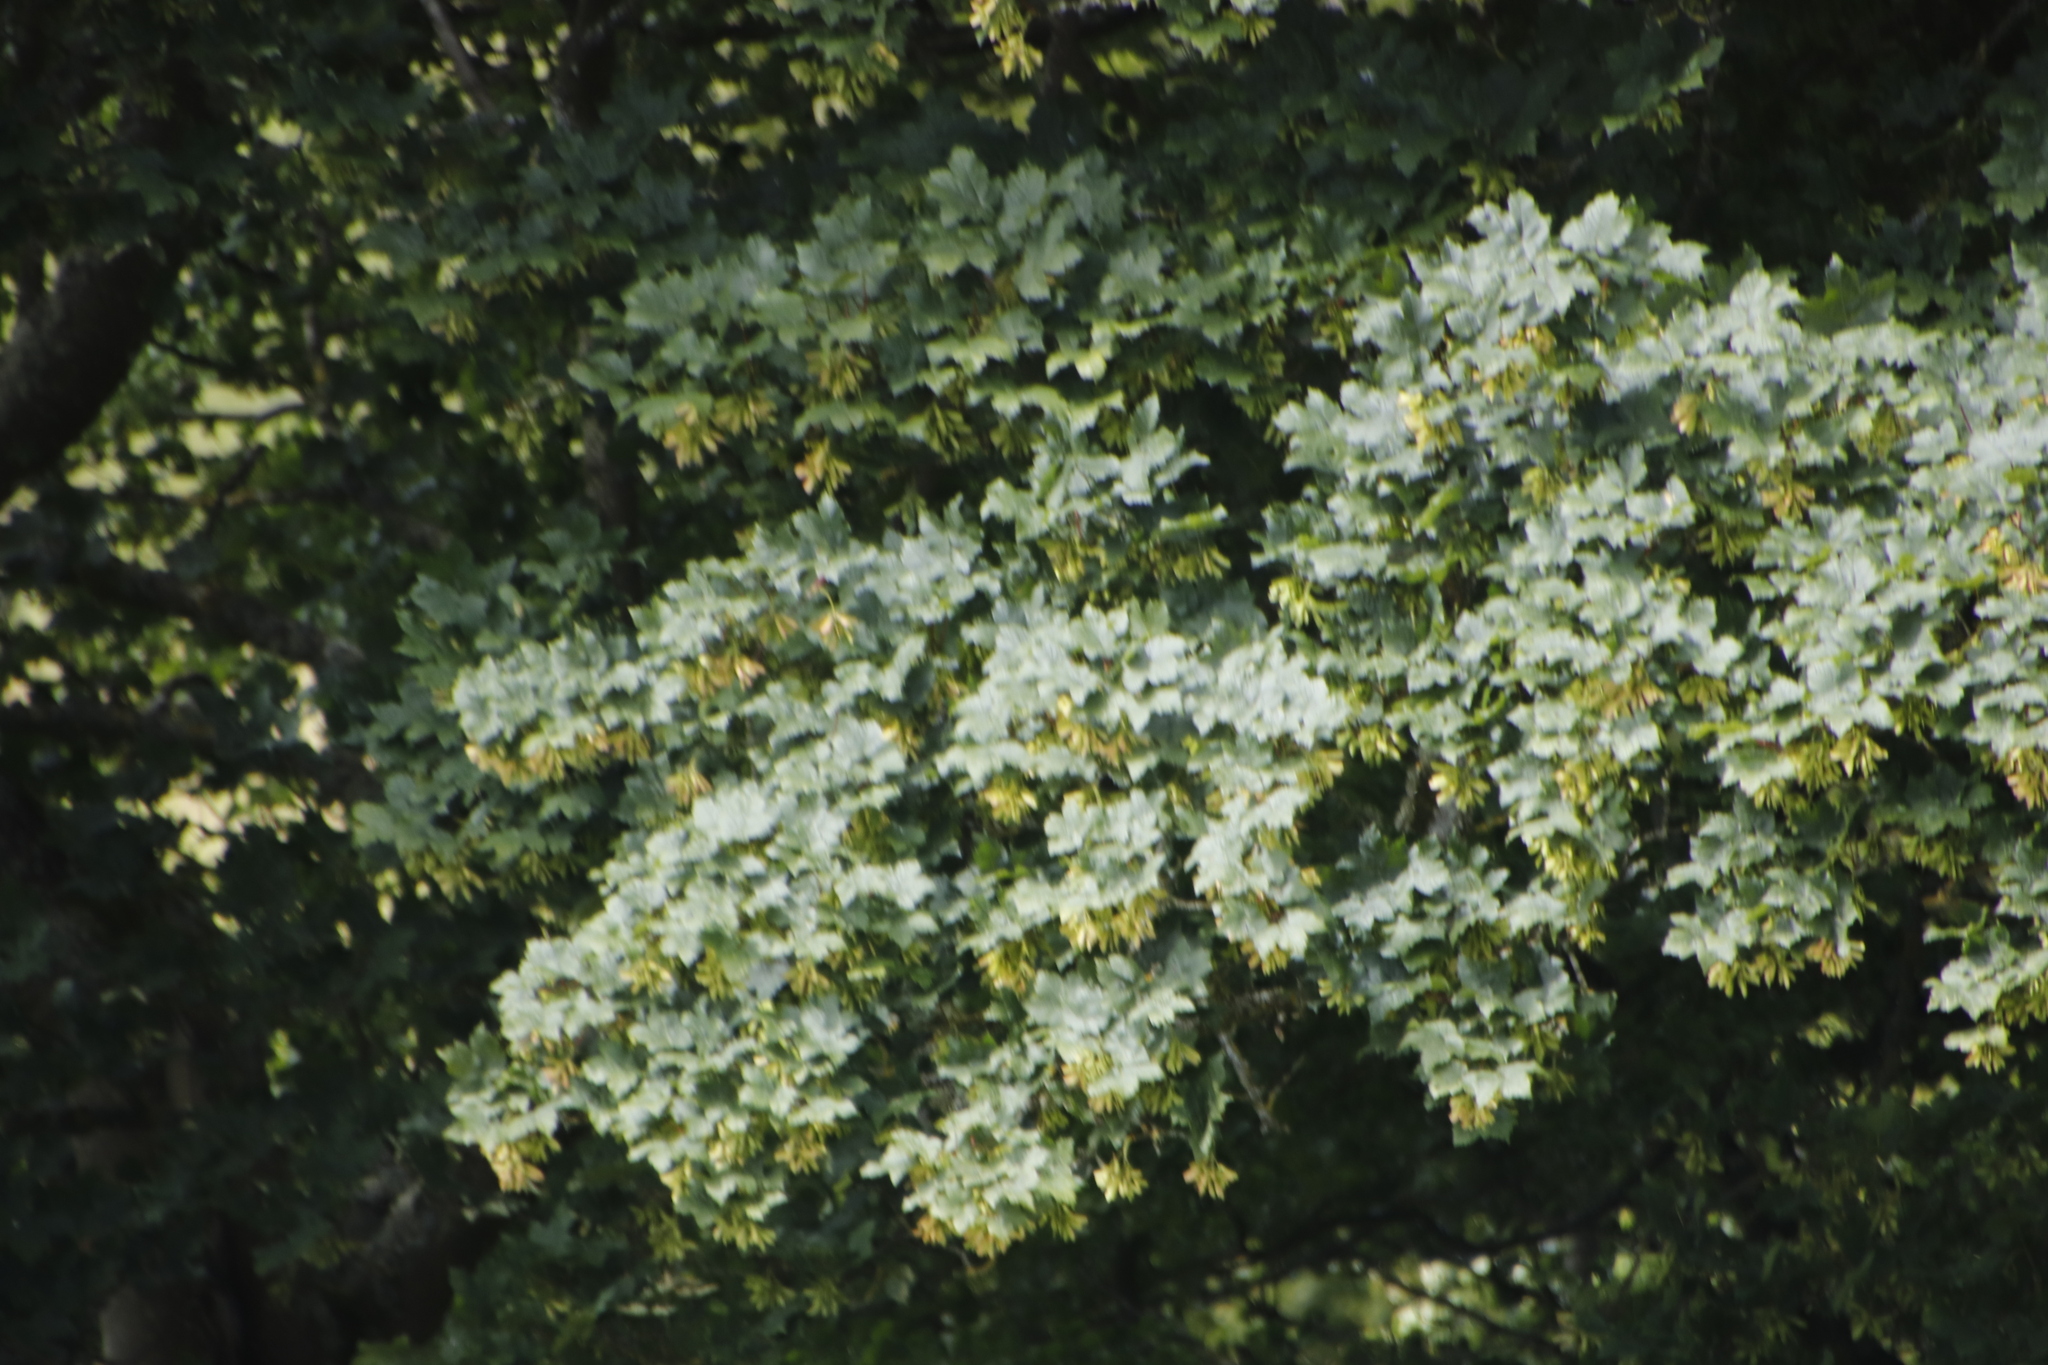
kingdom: Plantae
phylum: Tracheophyta
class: Magnoliopsida
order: Sapindales
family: Sapindaceae
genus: Acer
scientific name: Acer pseudoplatanus
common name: Sycamore
